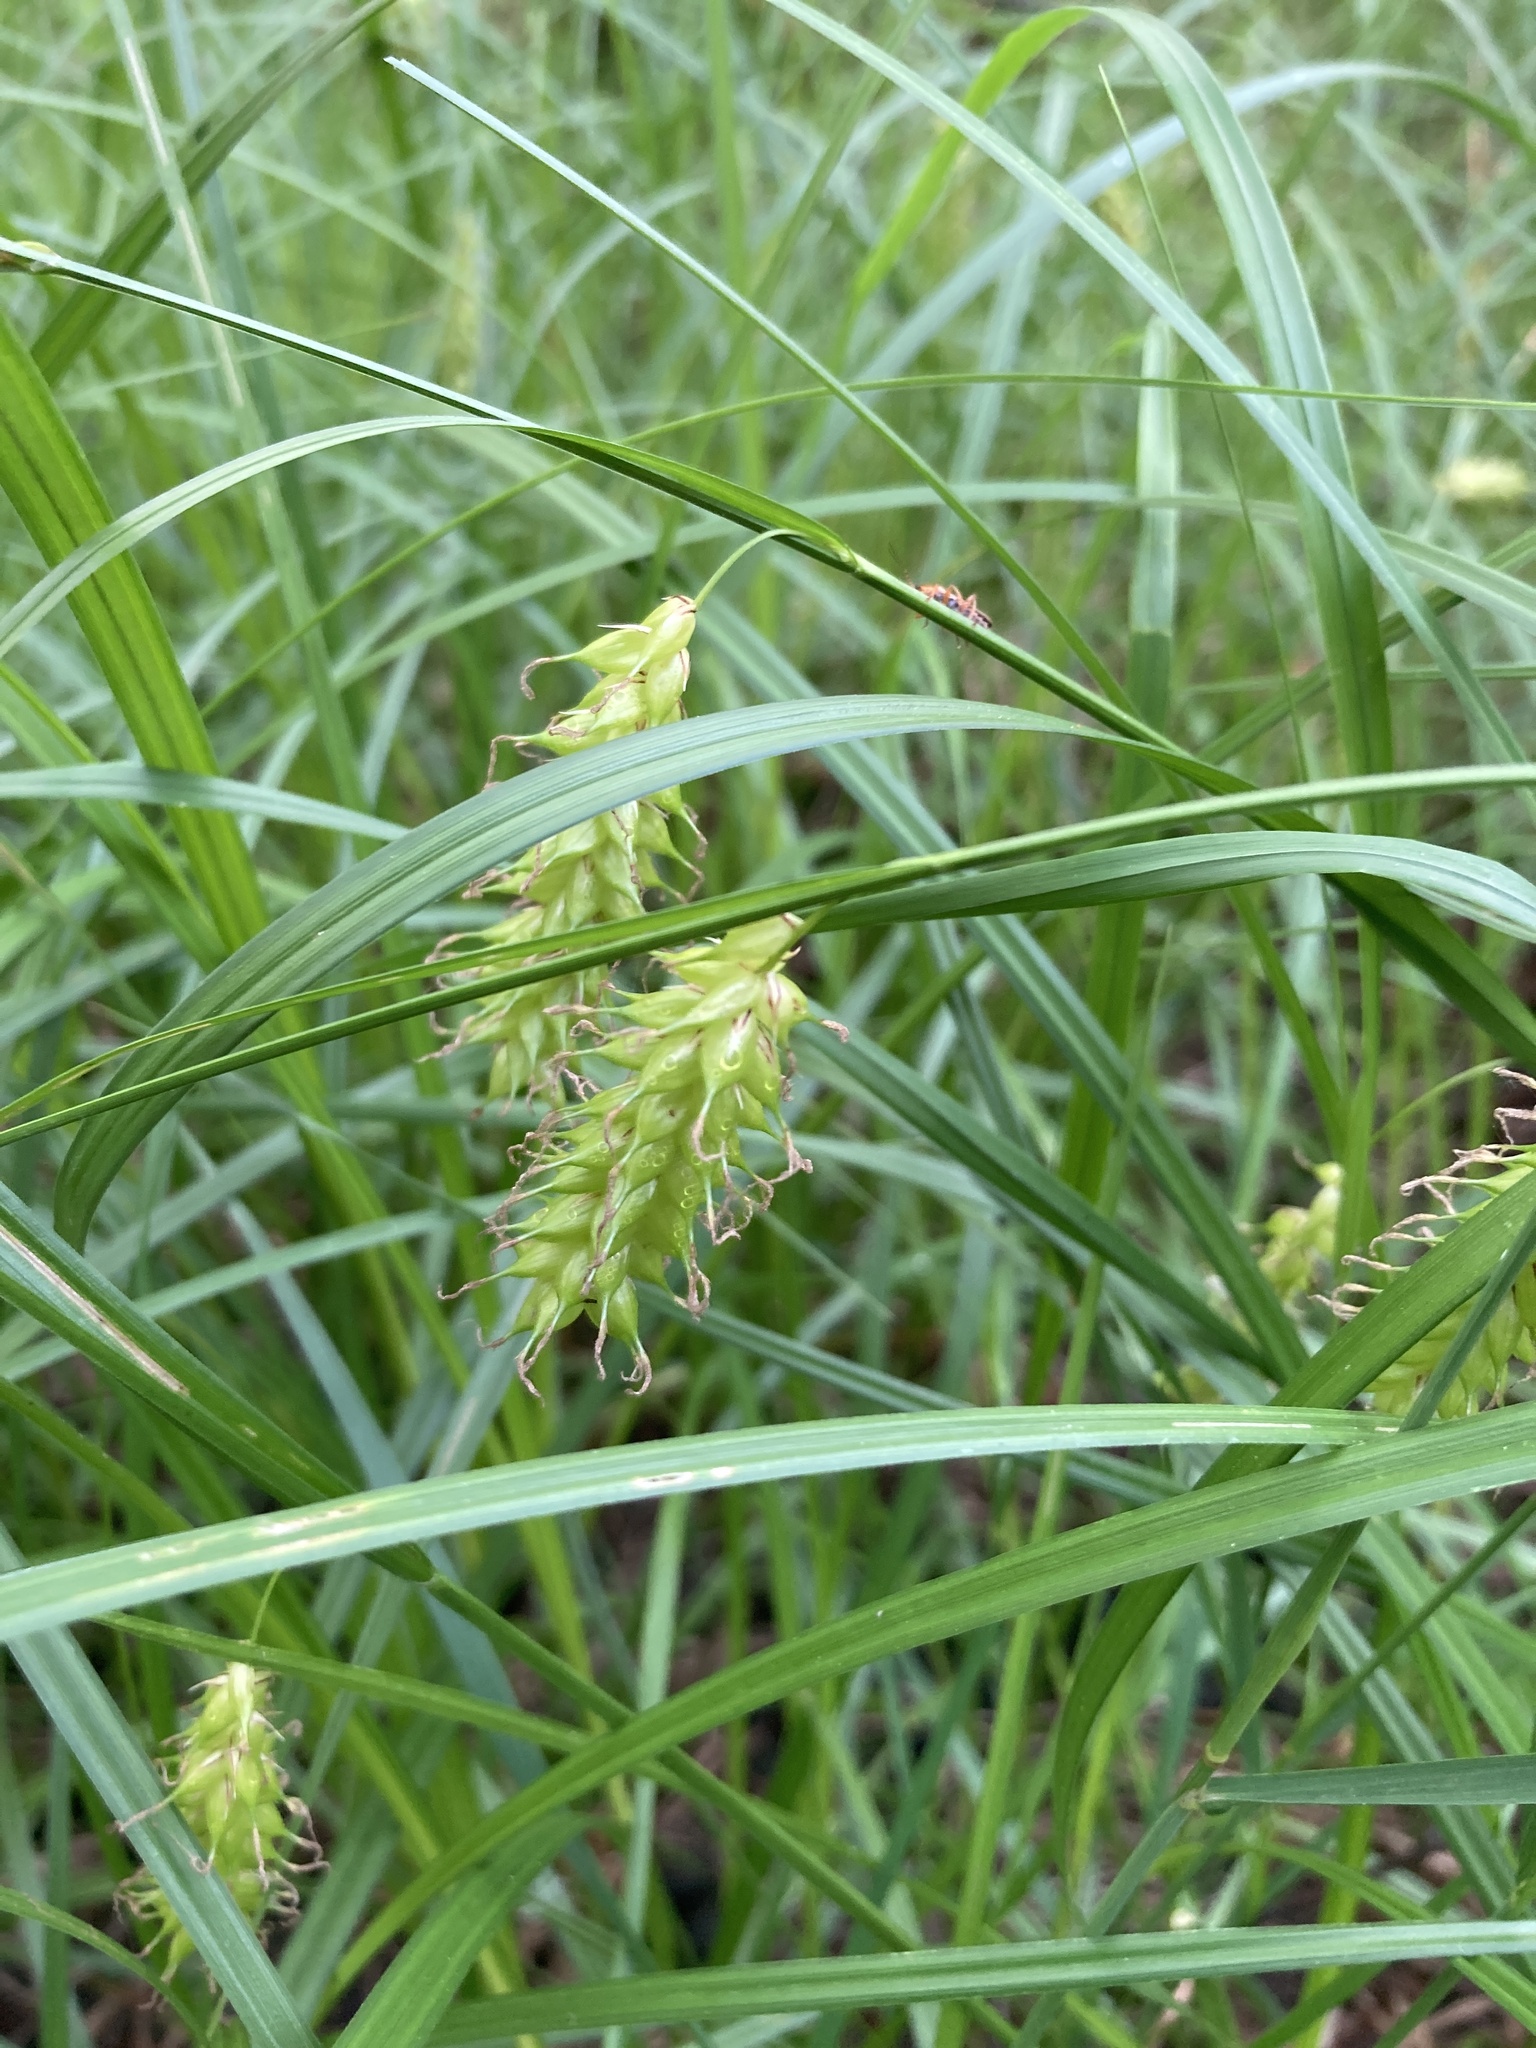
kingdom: Plantae
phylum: Tracheophyta
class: Liliopsida
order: Poales
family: Cyperaceae
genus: Carex
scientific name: Carex vesicaria
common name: Bladder-sedge
